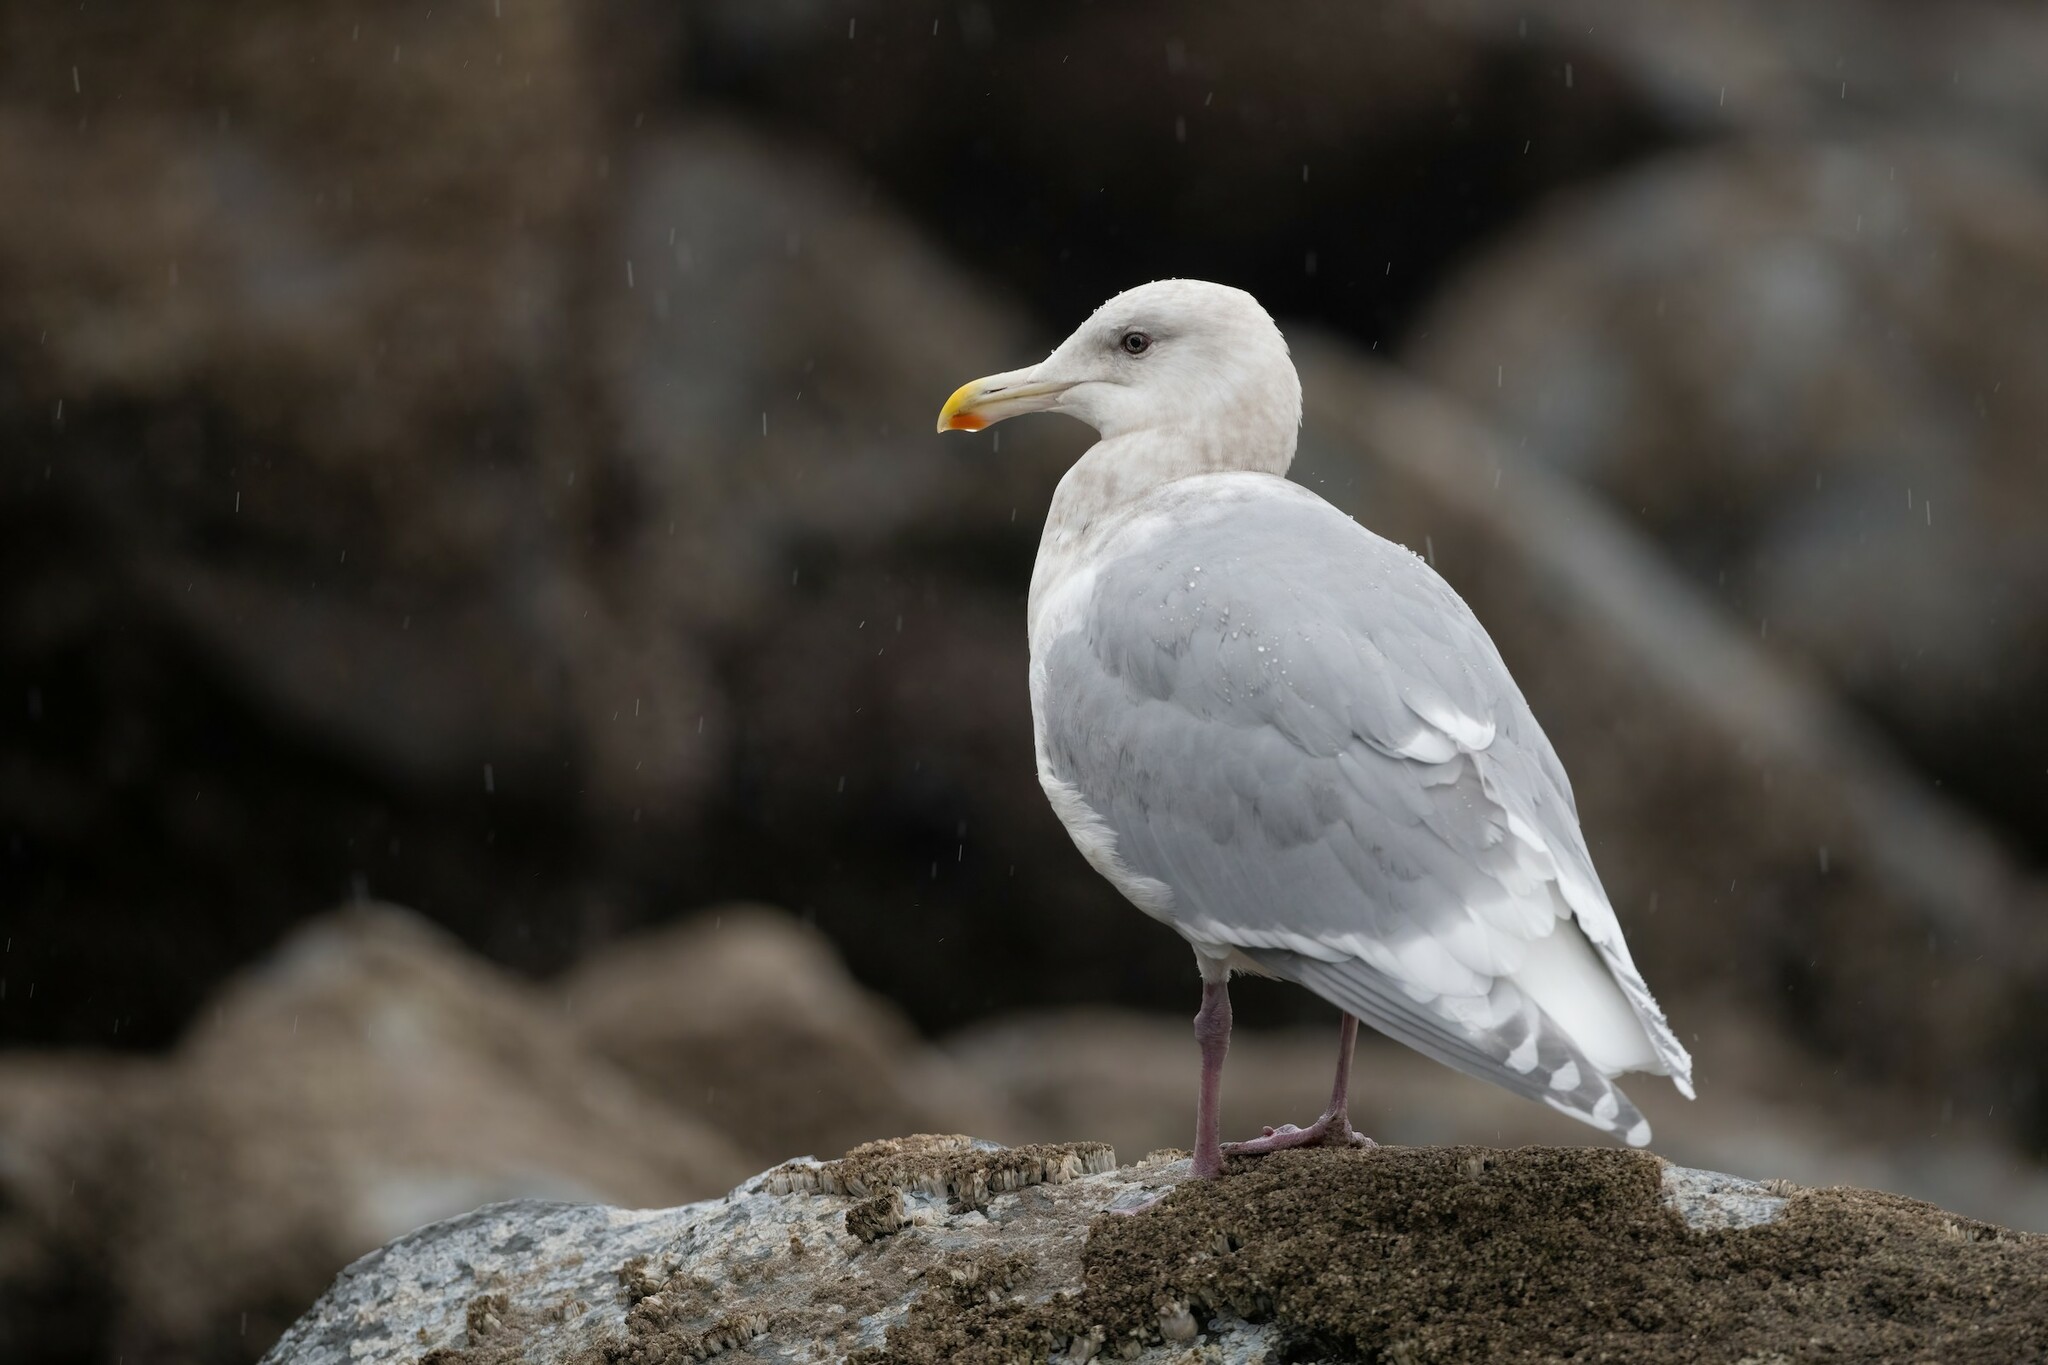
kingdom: Animalia
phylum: Chordata
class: Aves
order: Charadriiformes
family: Laridae
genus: Larus
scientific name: Larus glaucescens
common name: Glaucous-winged gull
